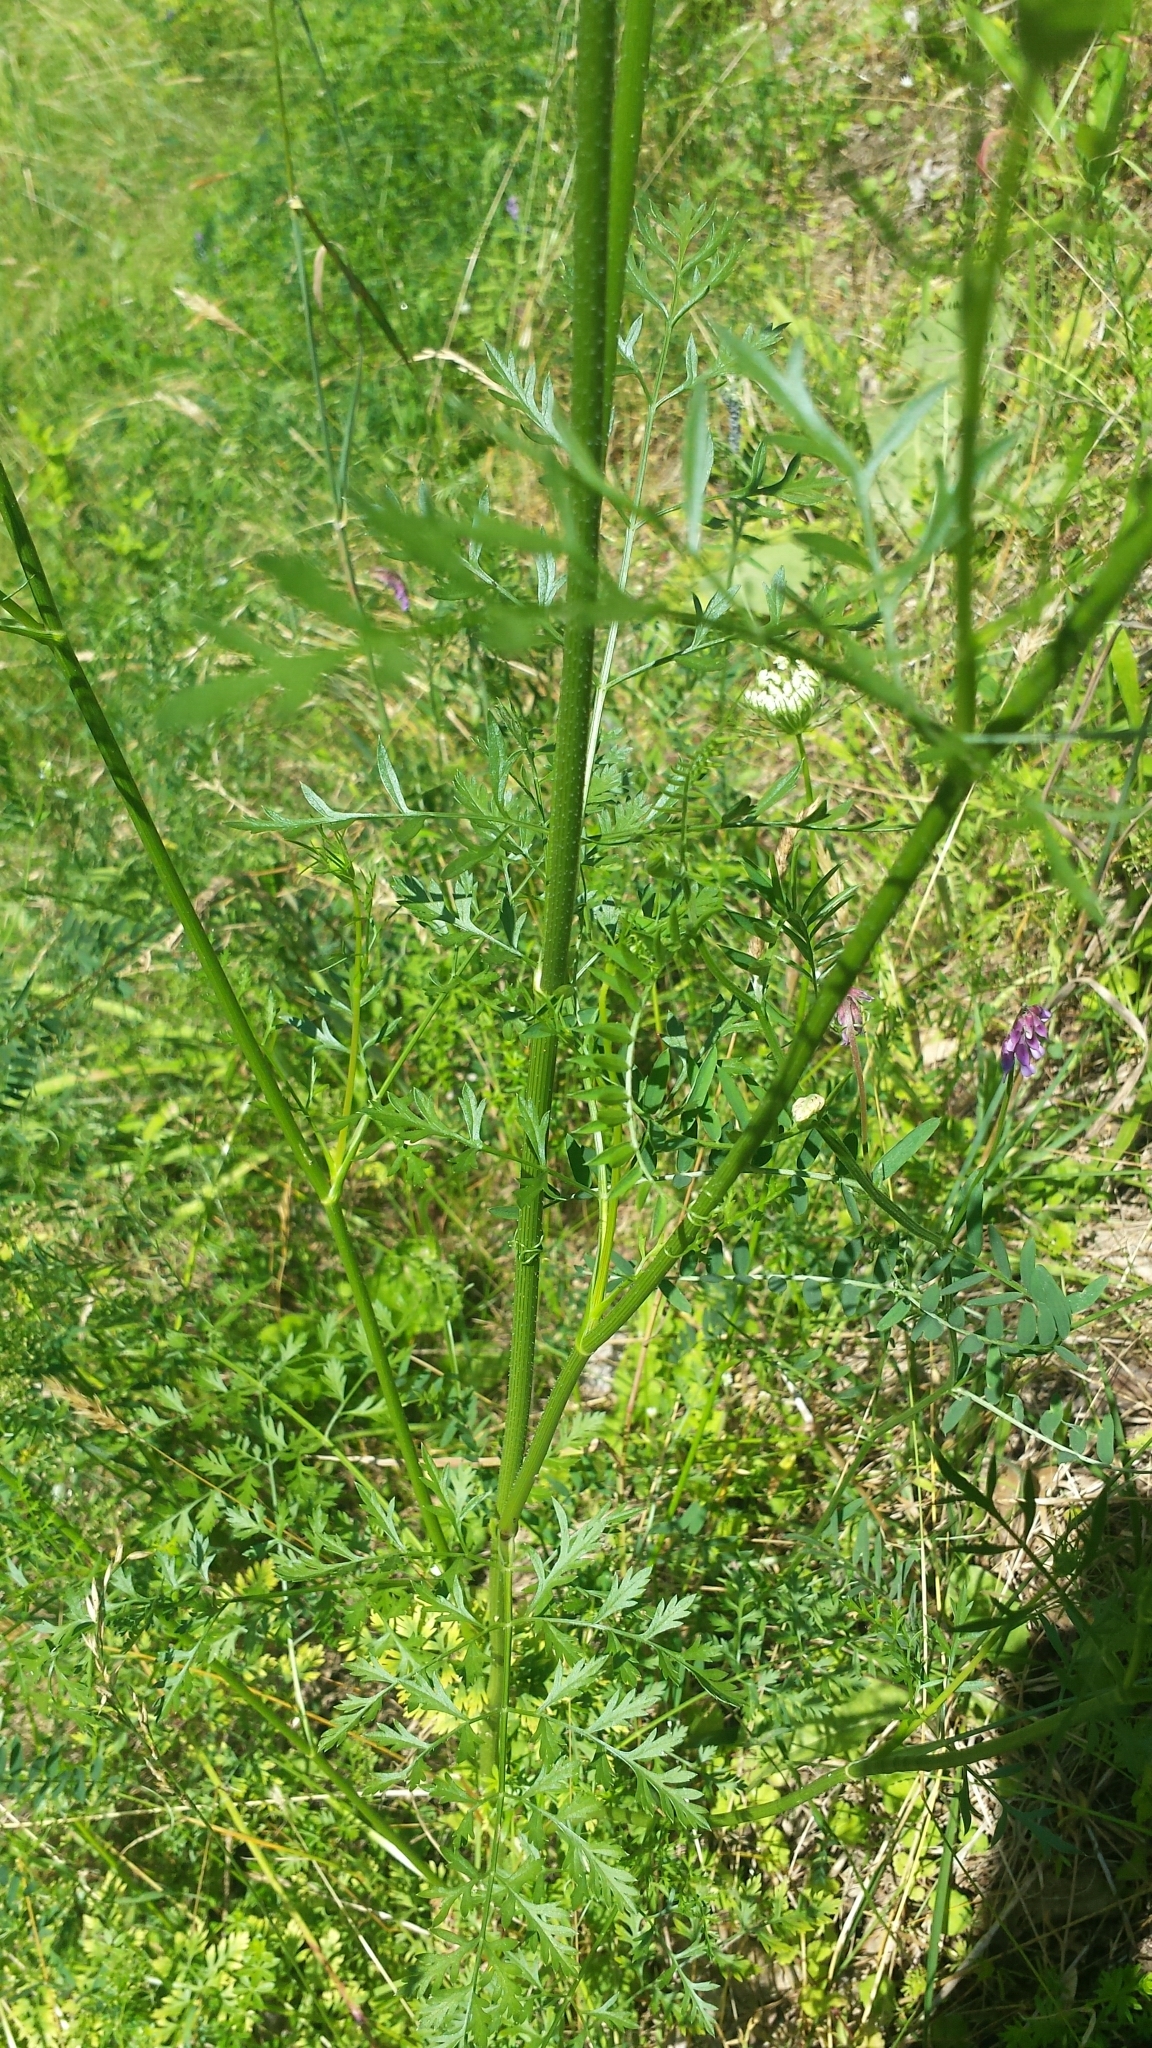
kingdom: Plantae
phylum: Tracheophyta
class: Magnoliopsida
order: Apiales
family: Apiaceae
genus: Daucus
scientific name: Daucus carota
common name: Wild carrot
